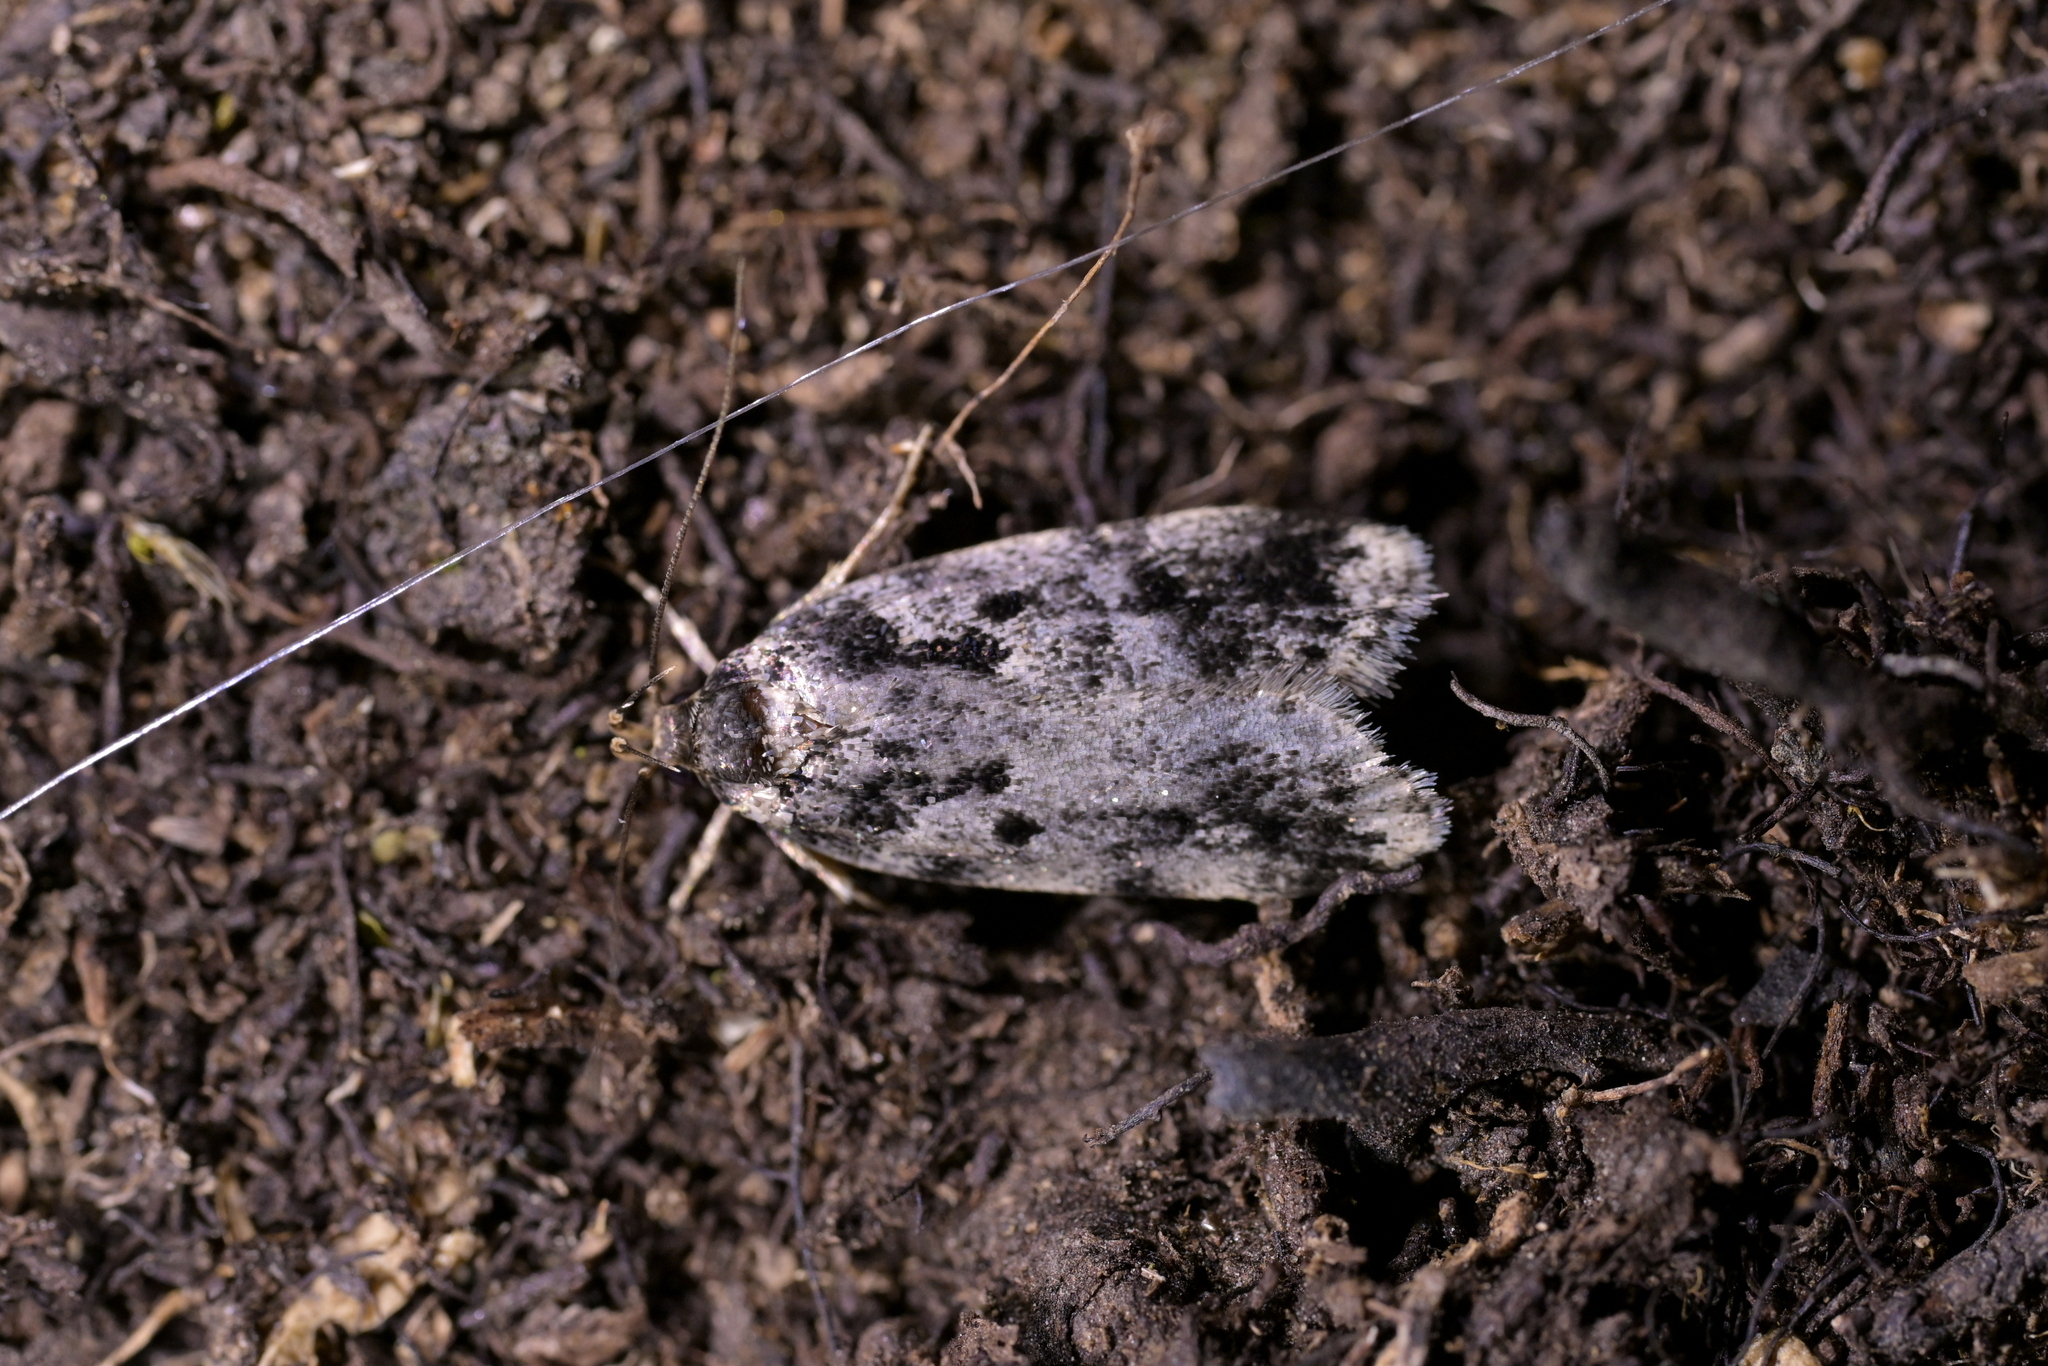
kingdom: Animalia
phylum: Arthropoda
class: Insecta
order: Lepidoptera
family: Oecophoridae
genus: Barea
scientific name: Barea confusella
